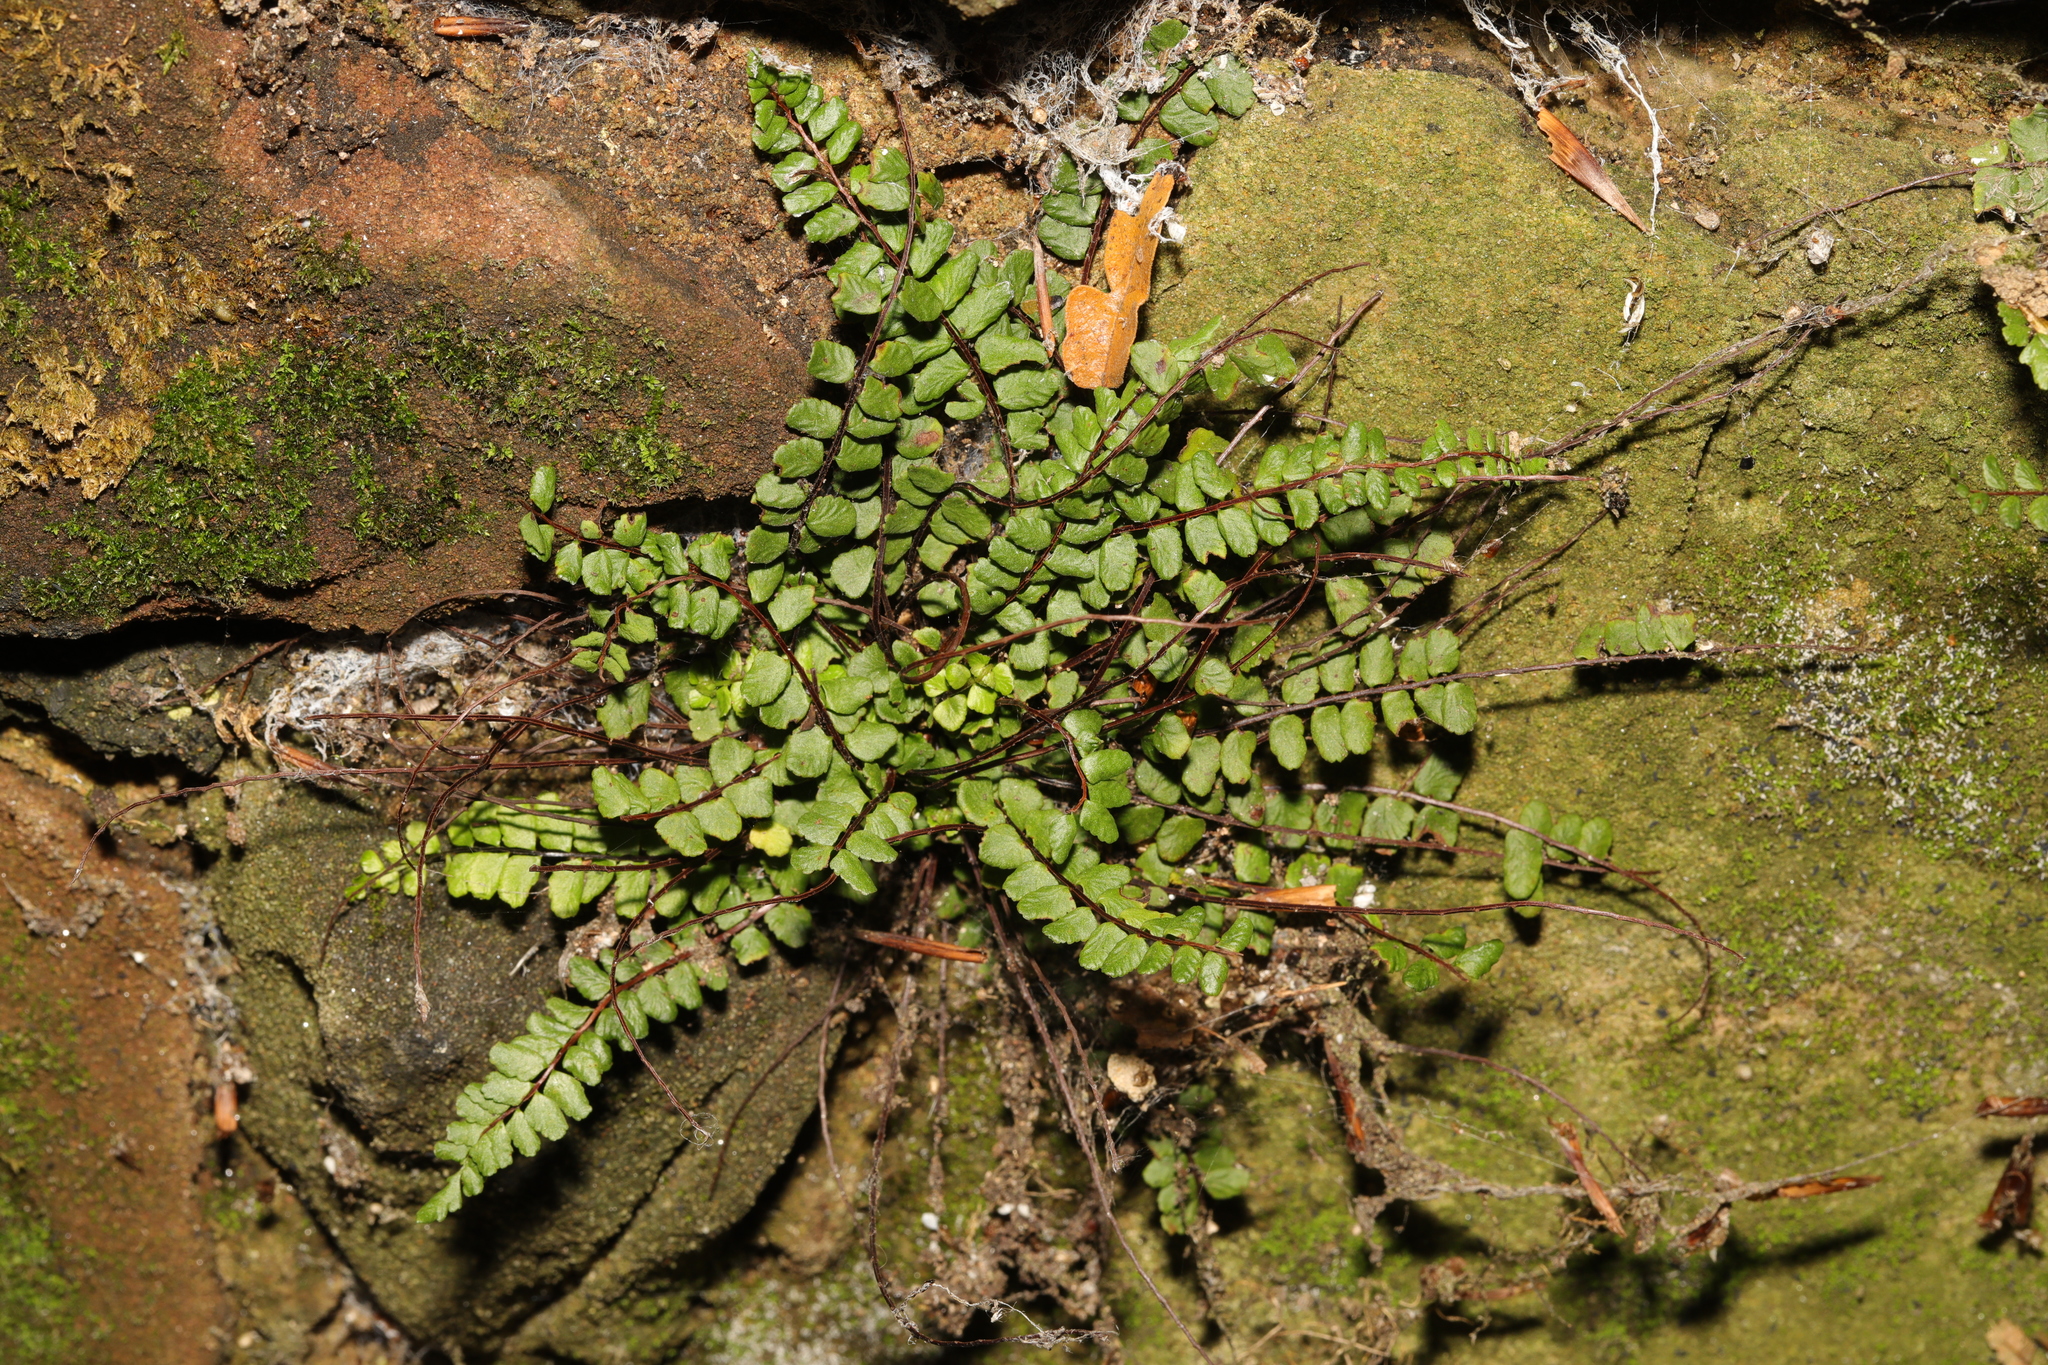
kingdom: Plantae
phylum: Tracheophyta
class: Polypodiopsida
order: Polypodiales
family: Aspleniaceae
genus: Asplenium
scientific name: Asplenium trichomanes
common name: Maidenhair spleenwort
